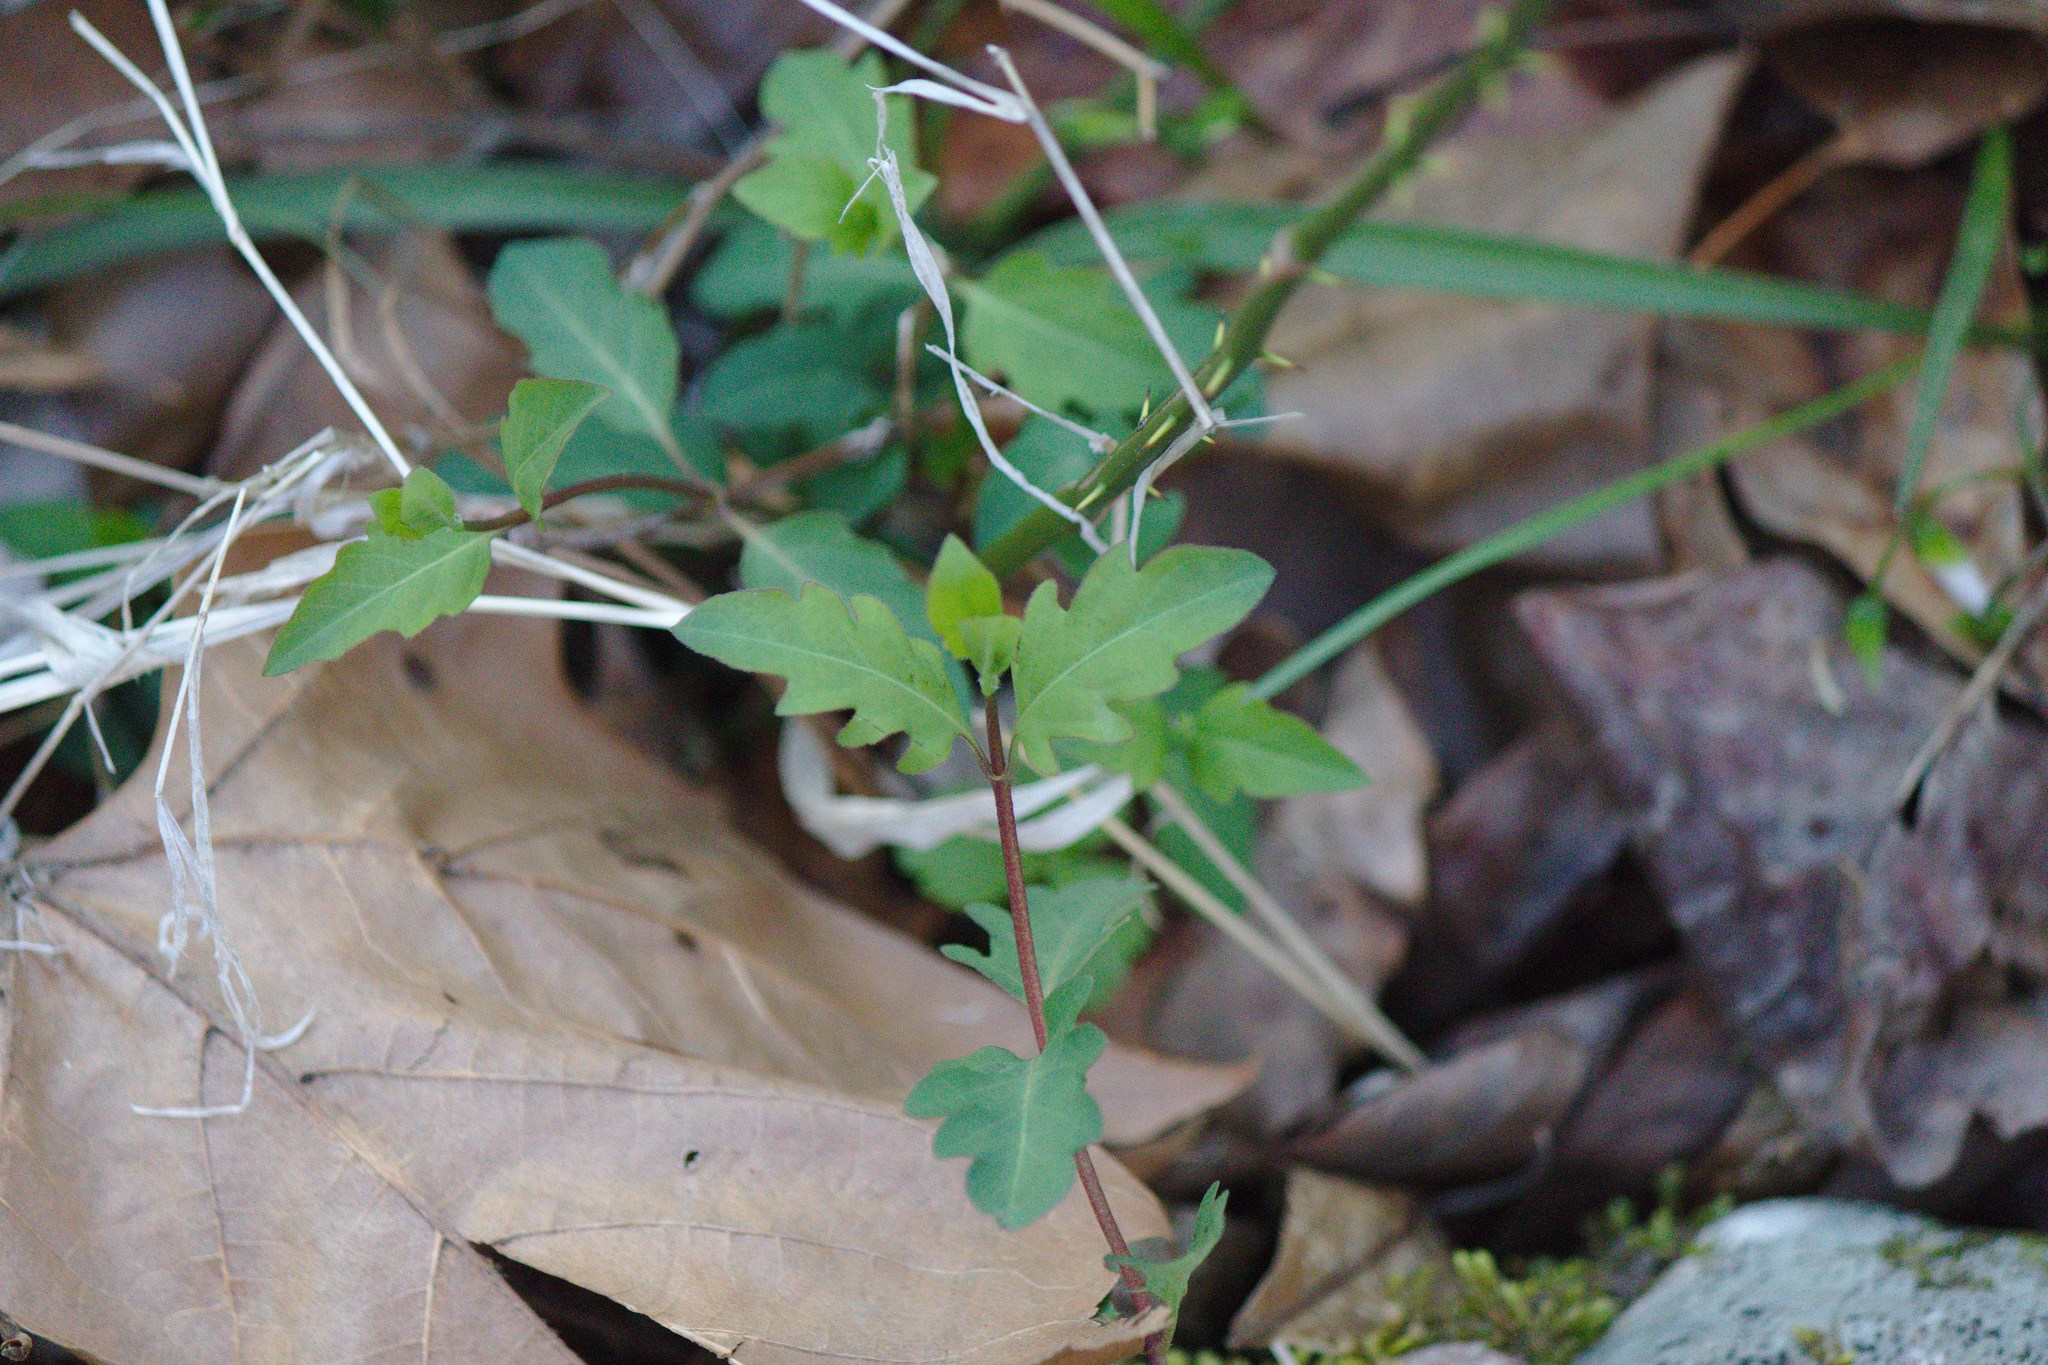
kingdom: Plantae
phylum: Tracheophyta
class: Magnoliopsida
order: Dipsacales
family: Caprifoliaceae
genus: Lonicera
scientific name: Lonicera japonica
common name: Japanese honeysuckle
